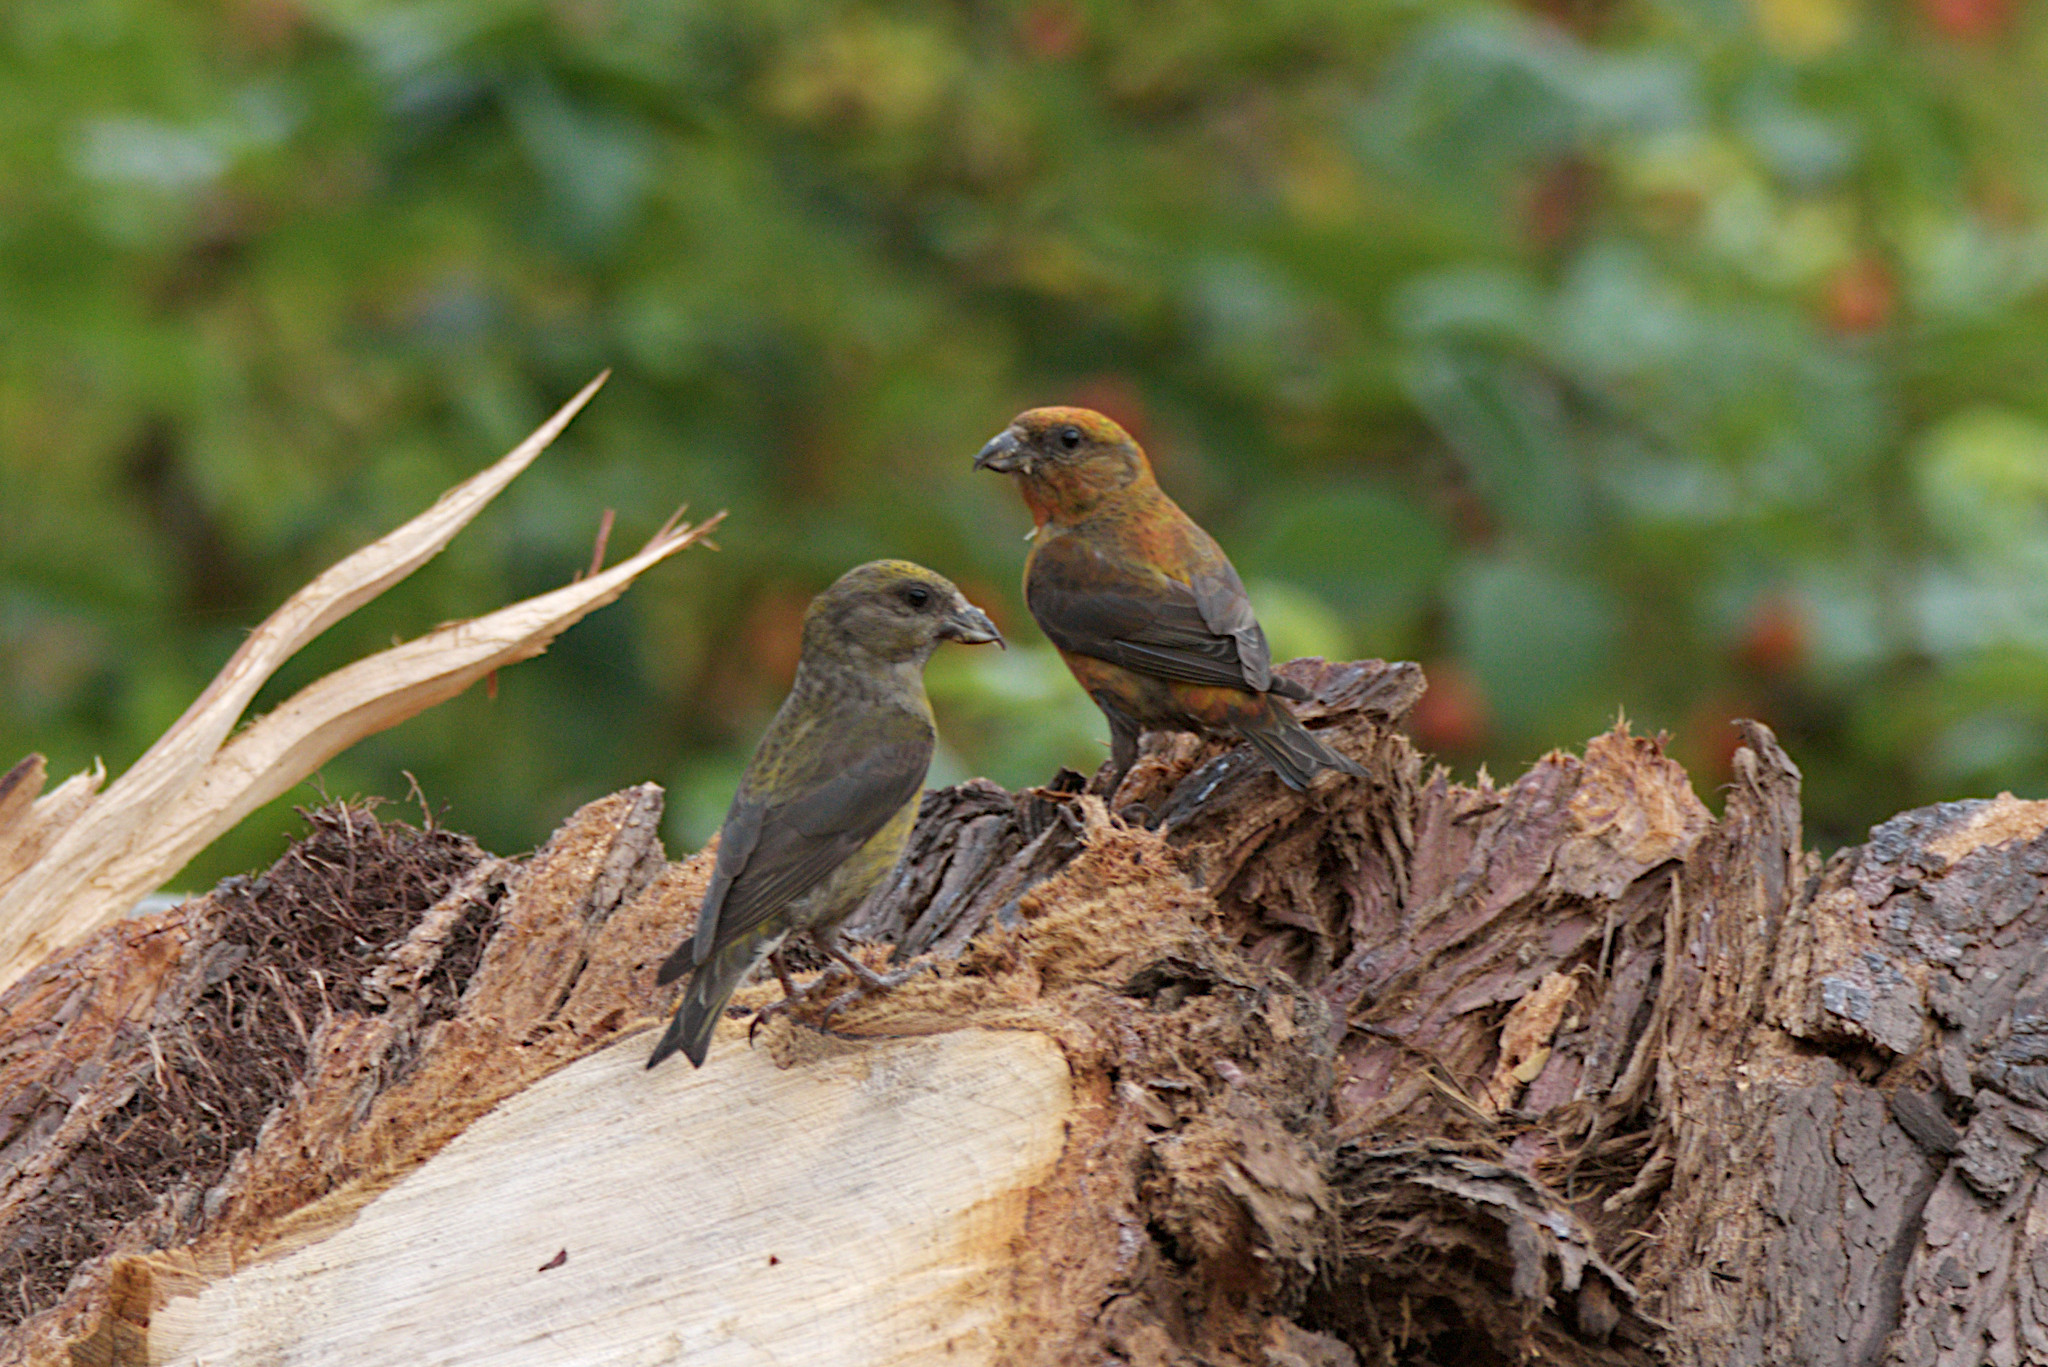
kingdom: Animalia
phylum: Chordata
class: Aves
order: Passeriformes
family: Fringillidae
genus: Loxia
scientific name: Loxia curvirostra
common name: Red crossbill
